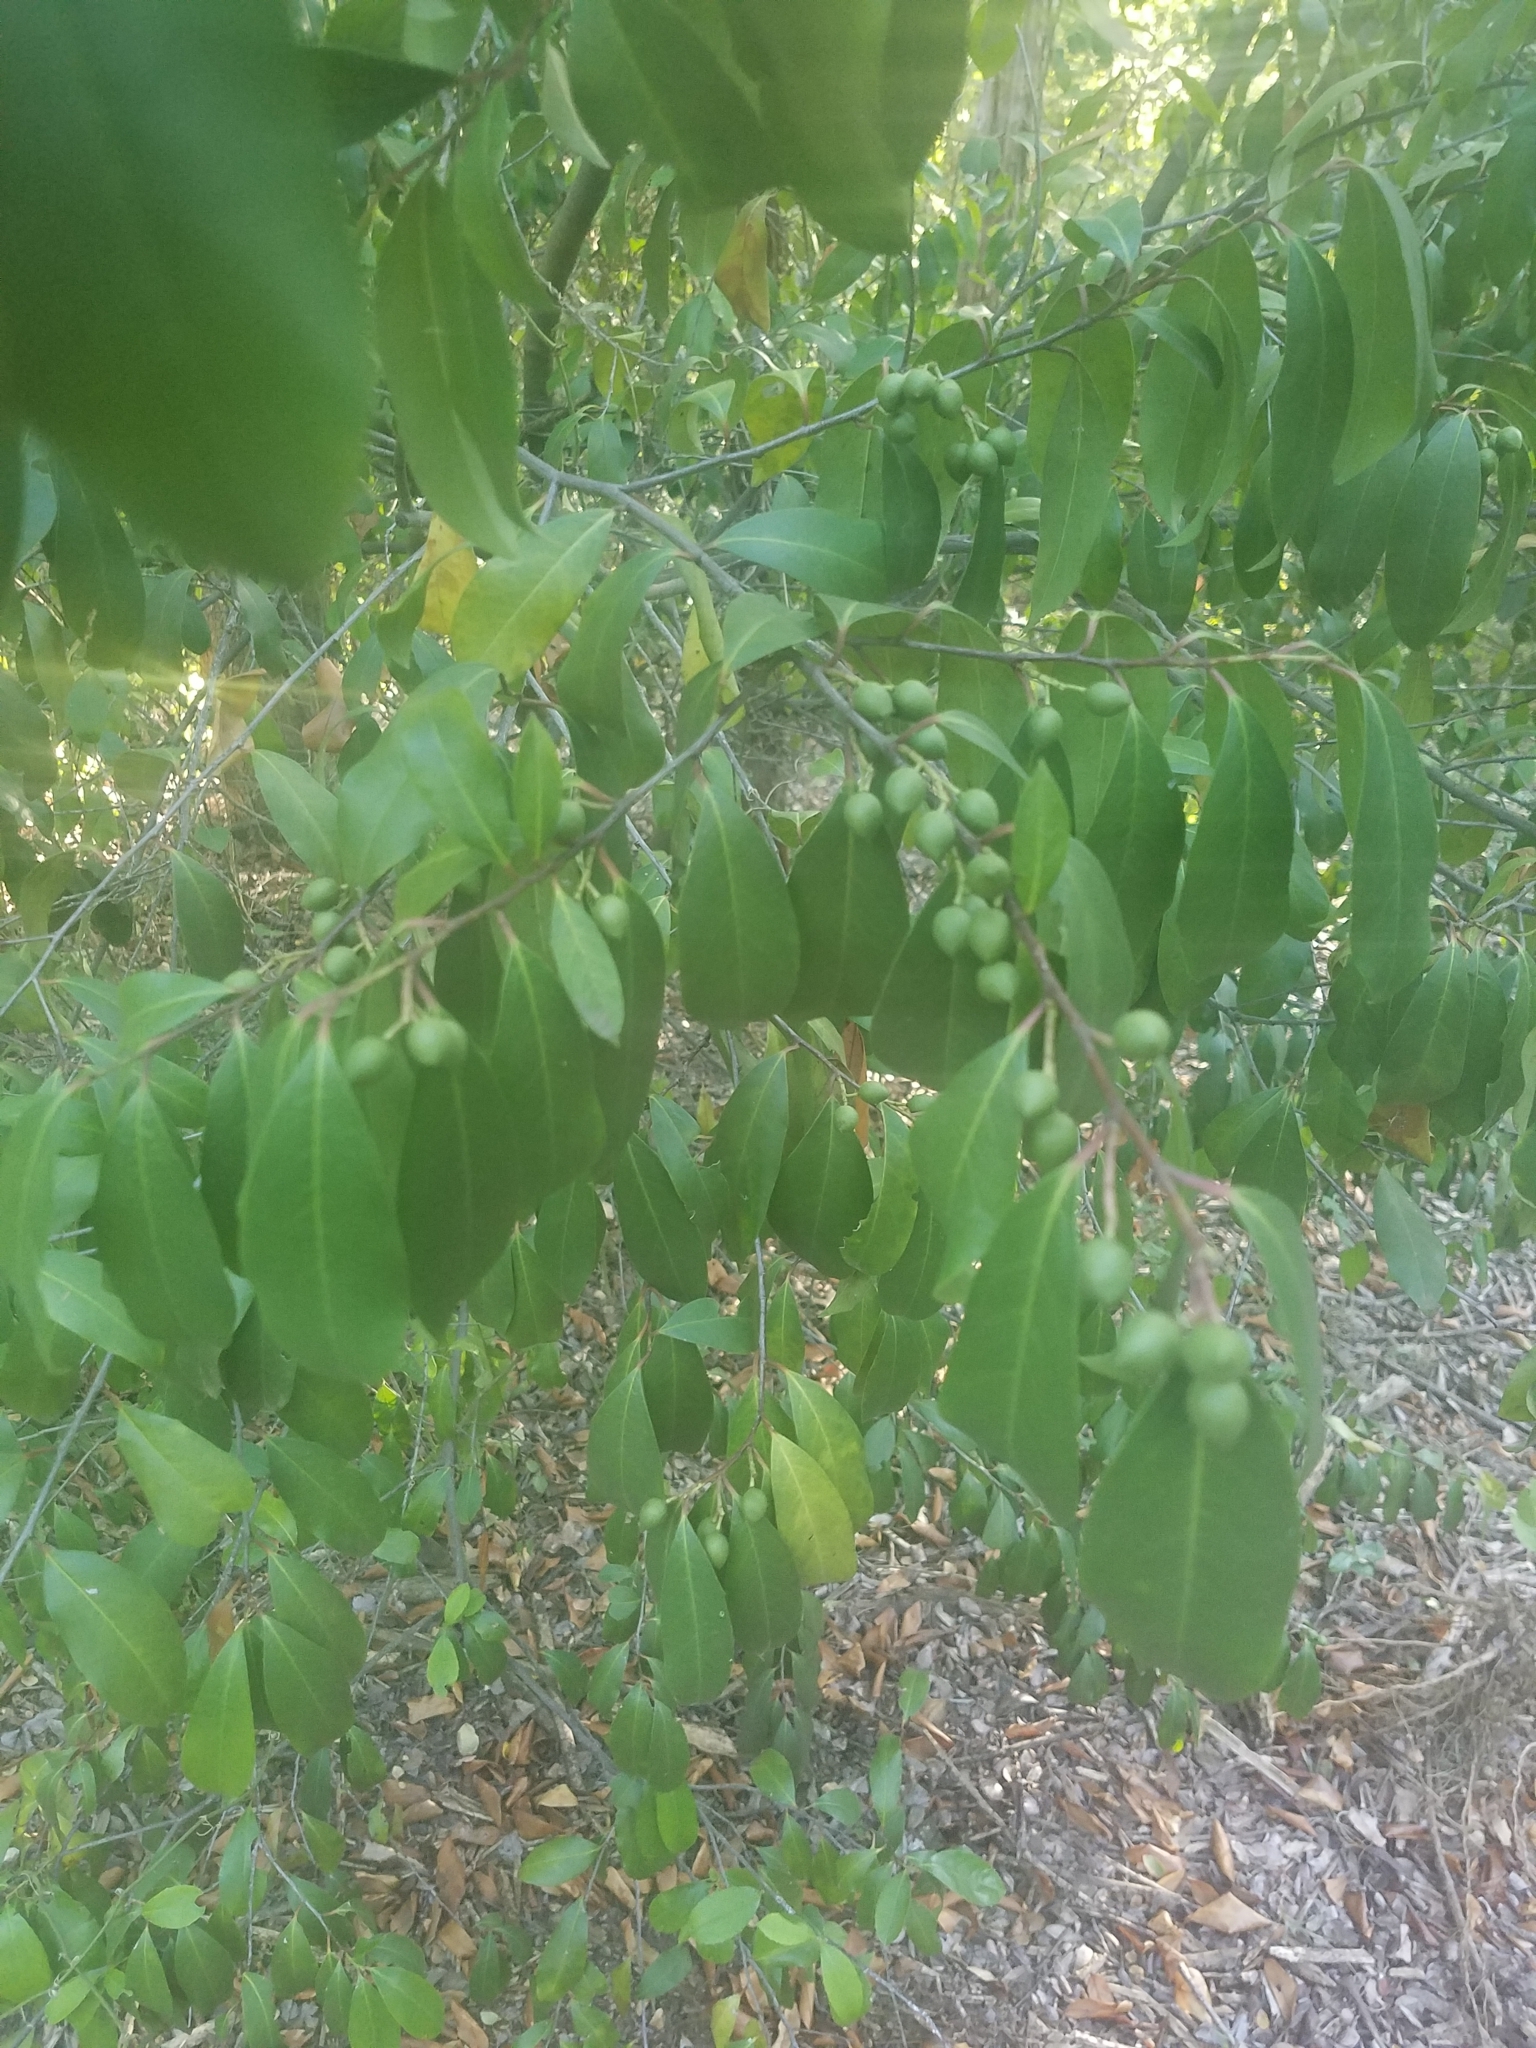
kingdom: Plantae
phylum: Tracheophyta
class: Magnoliopsida
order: Rosales
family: Rosaceae
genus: Prunus
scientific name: Prunus caroliniana
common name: Carolina laurel cherry
